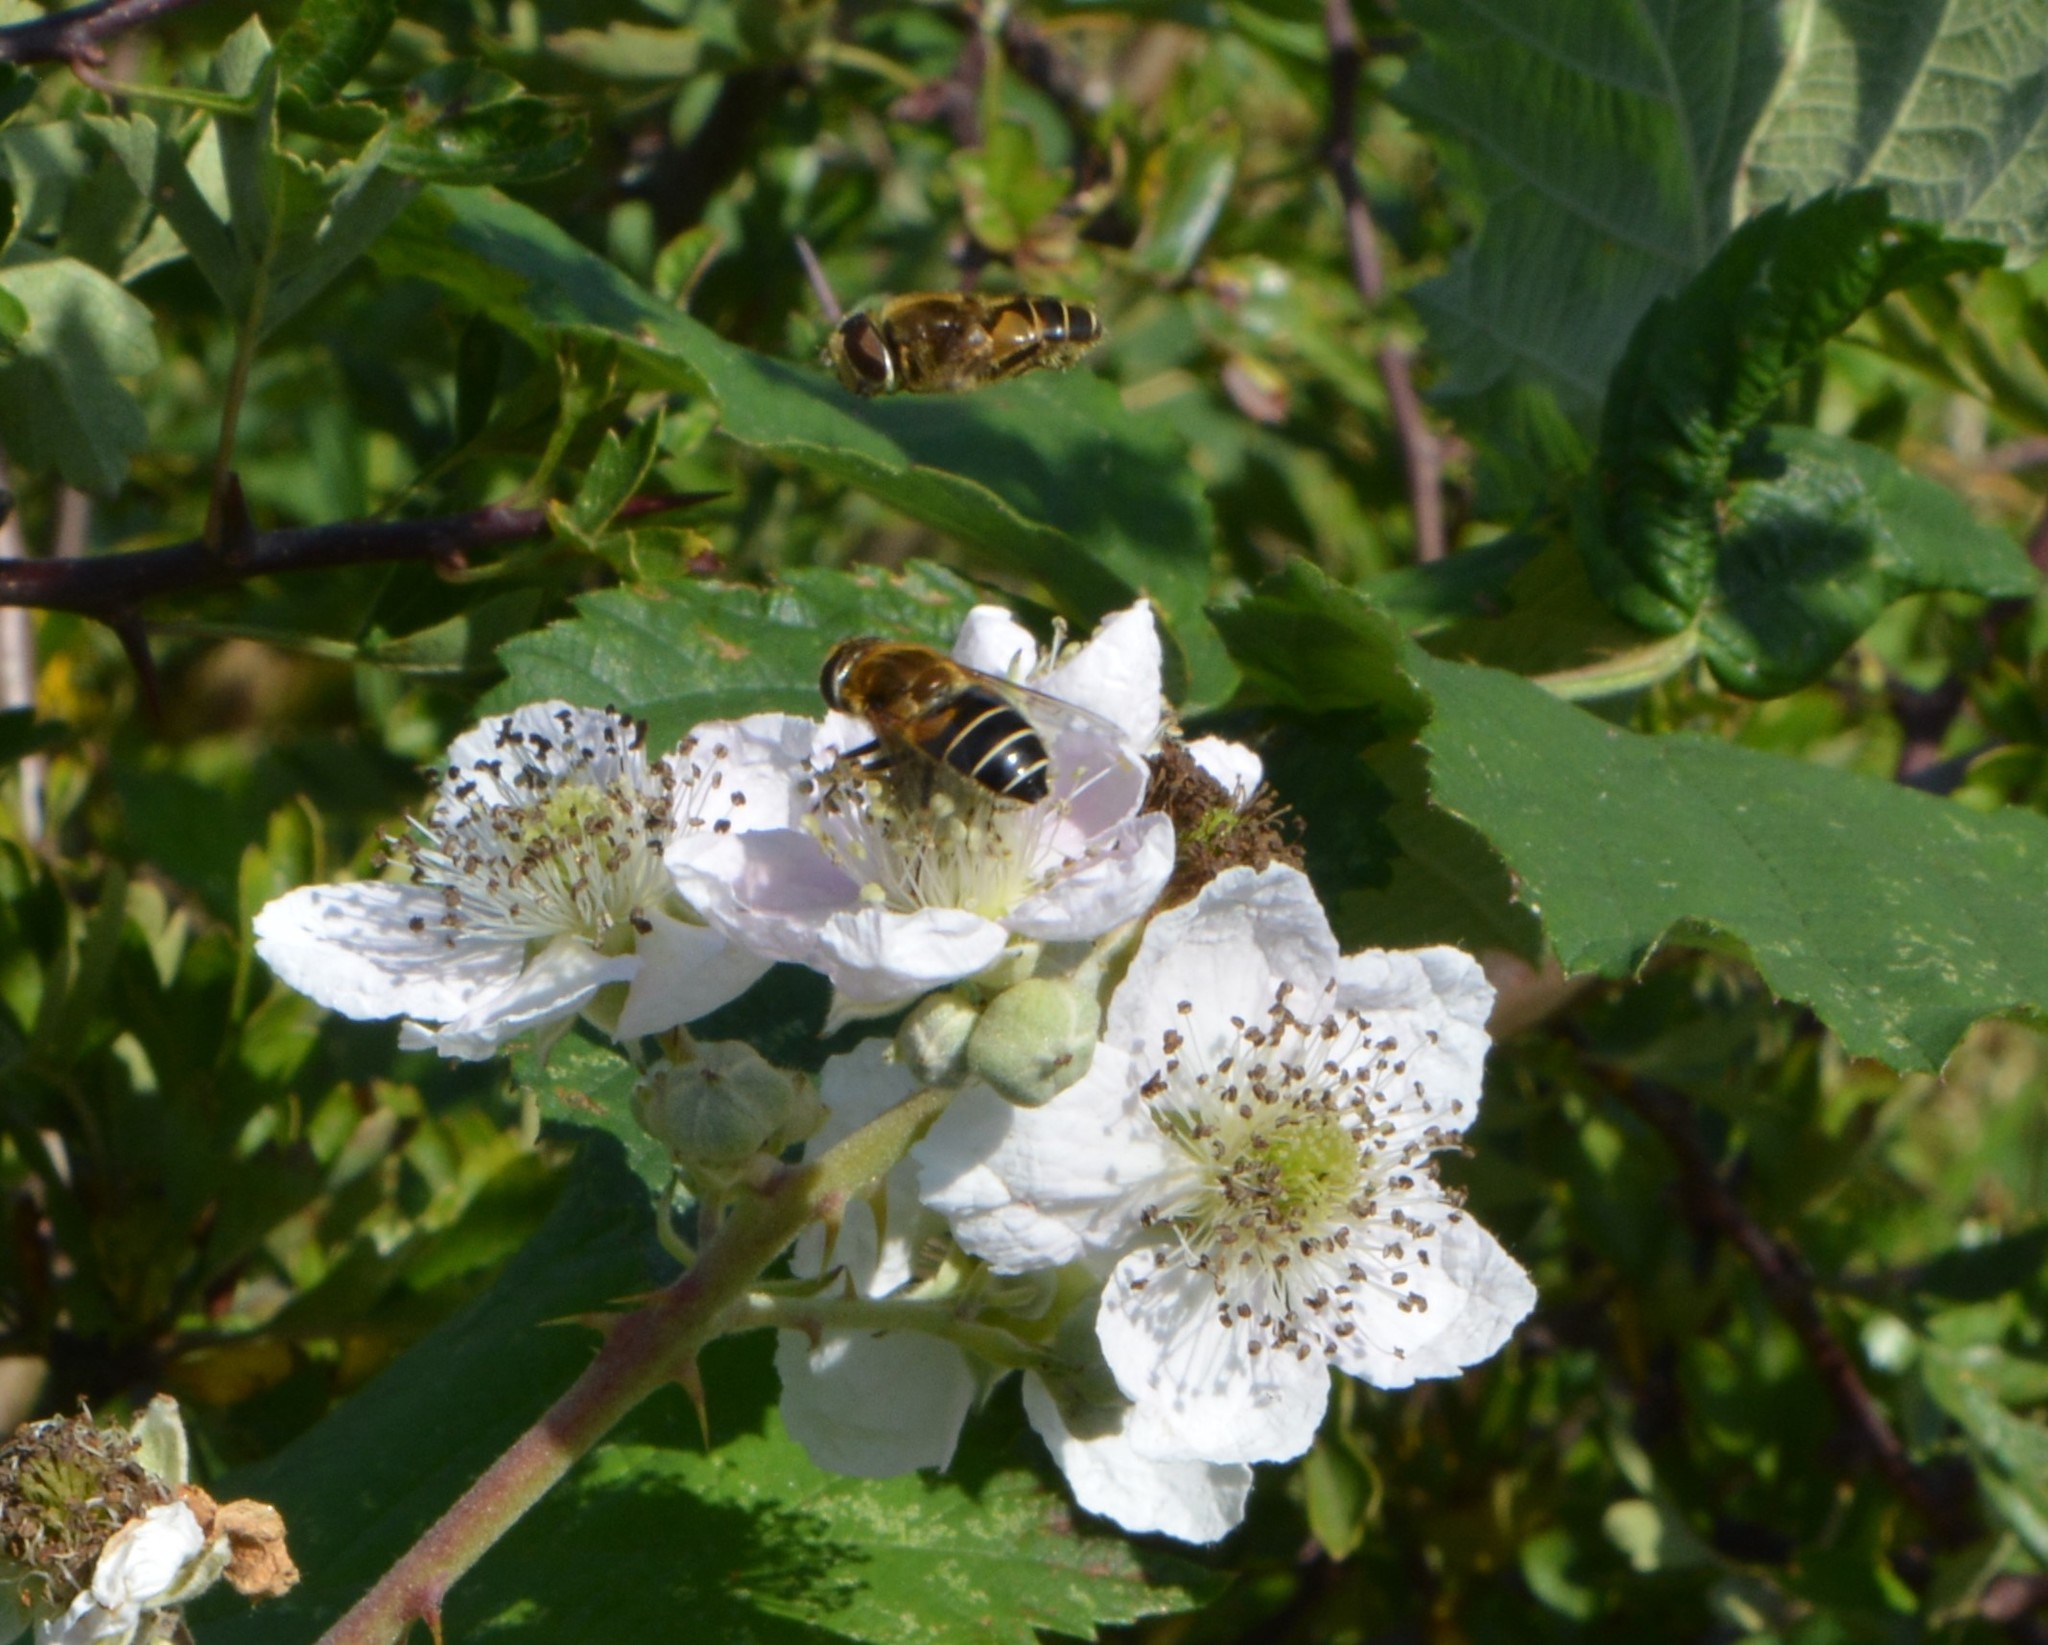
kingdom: Animalia
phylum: Arthropoda
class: Insecta
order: Diptera
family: Syrphidae
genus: Eristalis
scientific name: Eristalis nemorum
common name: Orange-spined drone fly
